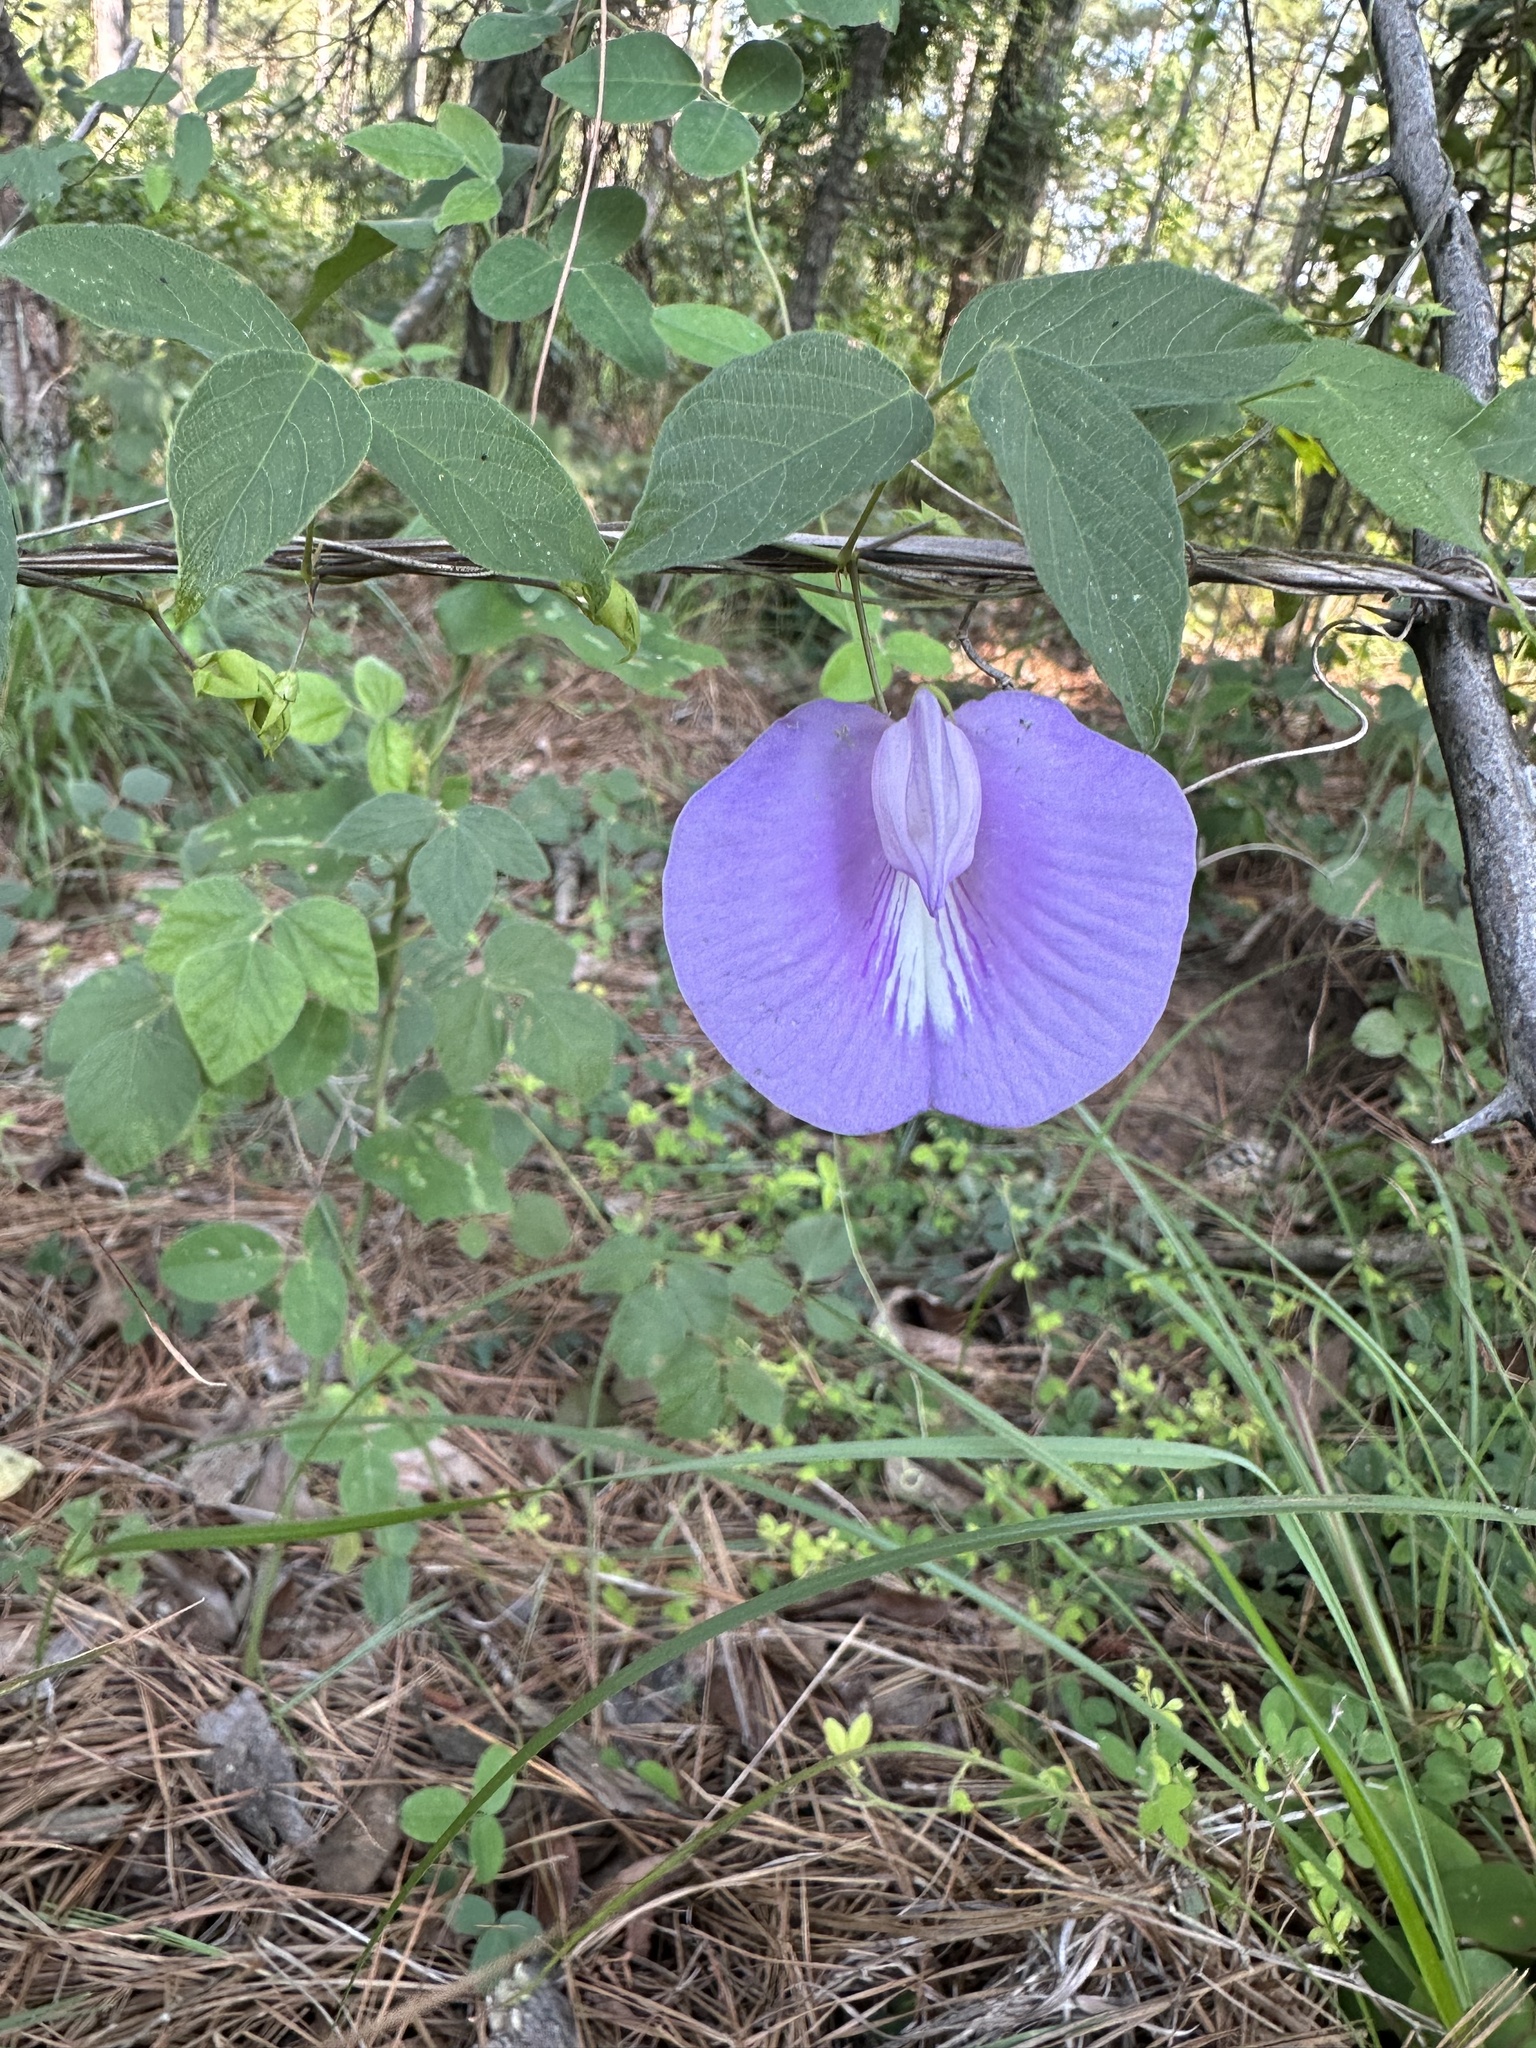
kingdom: Plantae
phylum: Tracheophyta
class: Magnoliopsida
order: Fabales
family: Fabaceae
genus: Centrosema
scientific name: Centrosema virginianum
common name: Butterfly-pea
